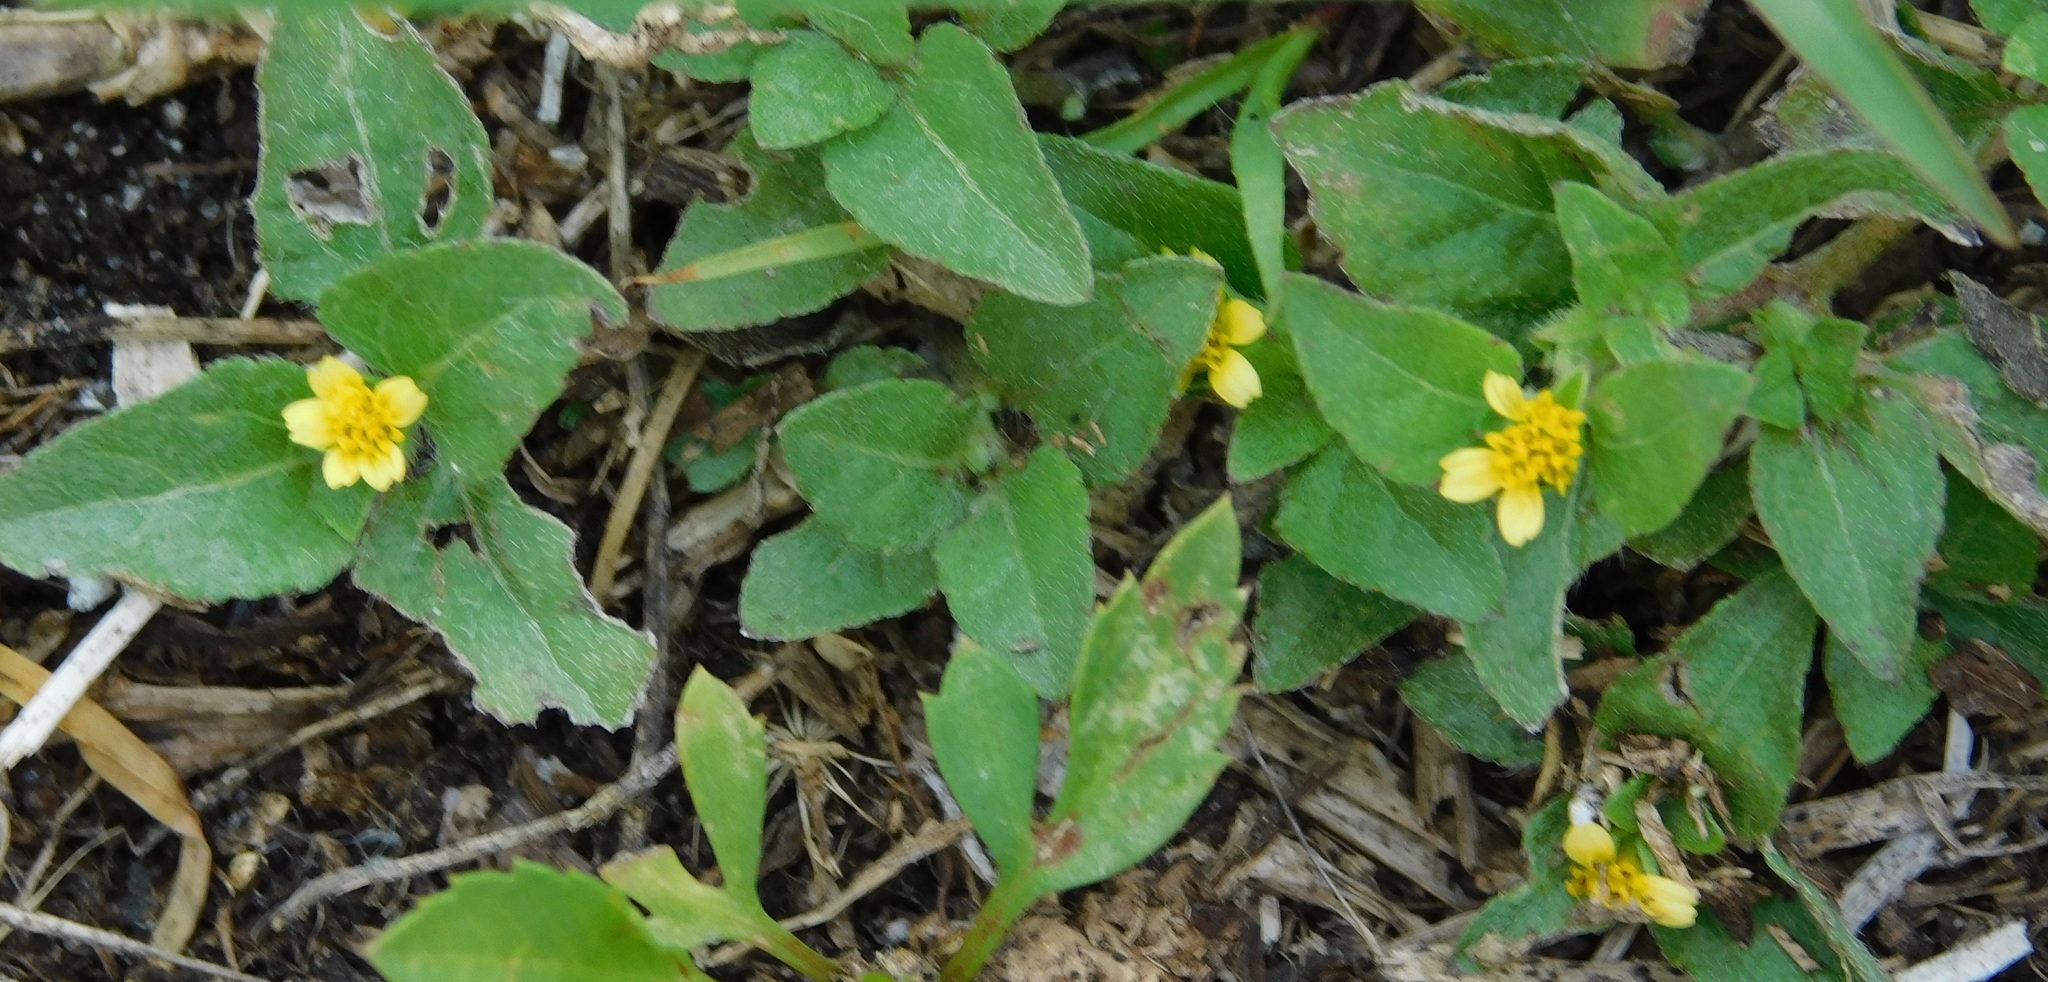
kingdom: Plantae
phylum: Tracheophyta
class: Magnoliopsida
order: Asterales
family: Asteraceae
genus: Calyptocarpus
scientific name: Calyptocarpus vialis
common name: Straggler daisy
